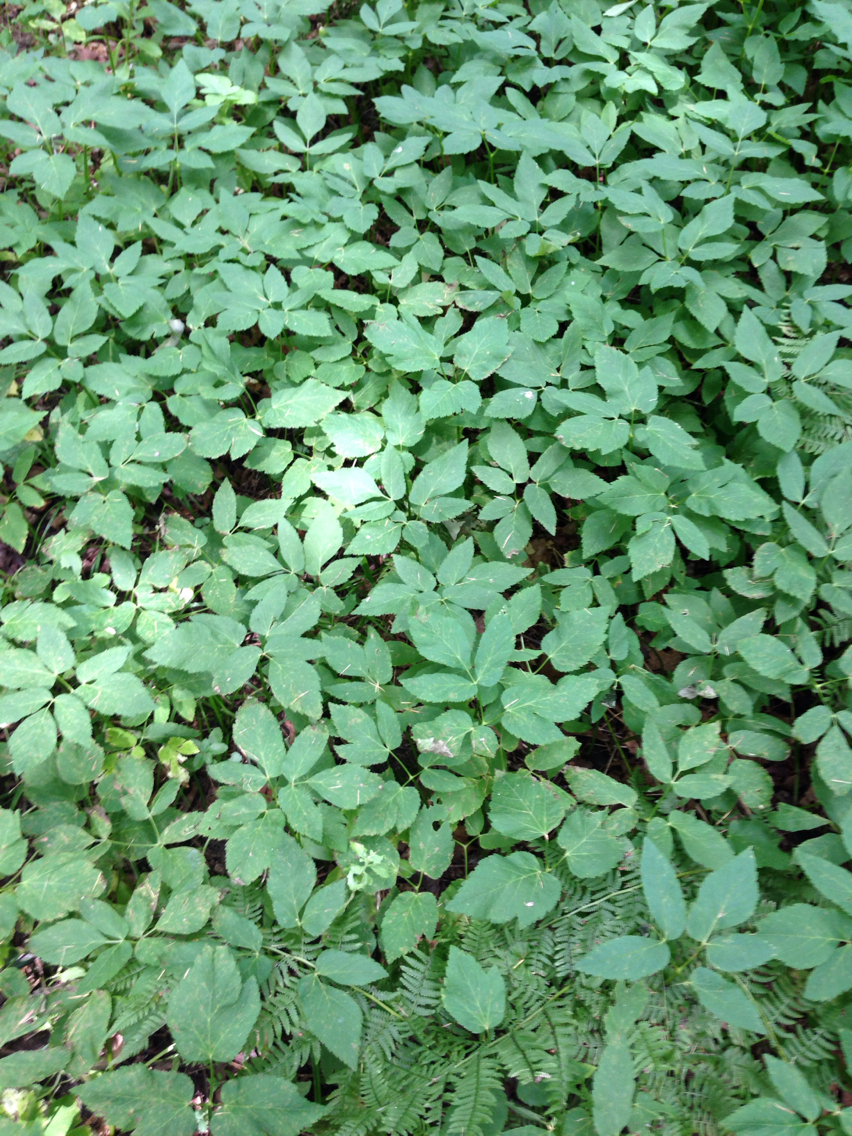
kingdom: Plantae
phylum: Tracheophyta
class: Magnoliopsida
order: Apiales
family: Apiaceae
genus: Aegopodium
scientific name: Aegopodium podagraria
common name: Ground-elder
